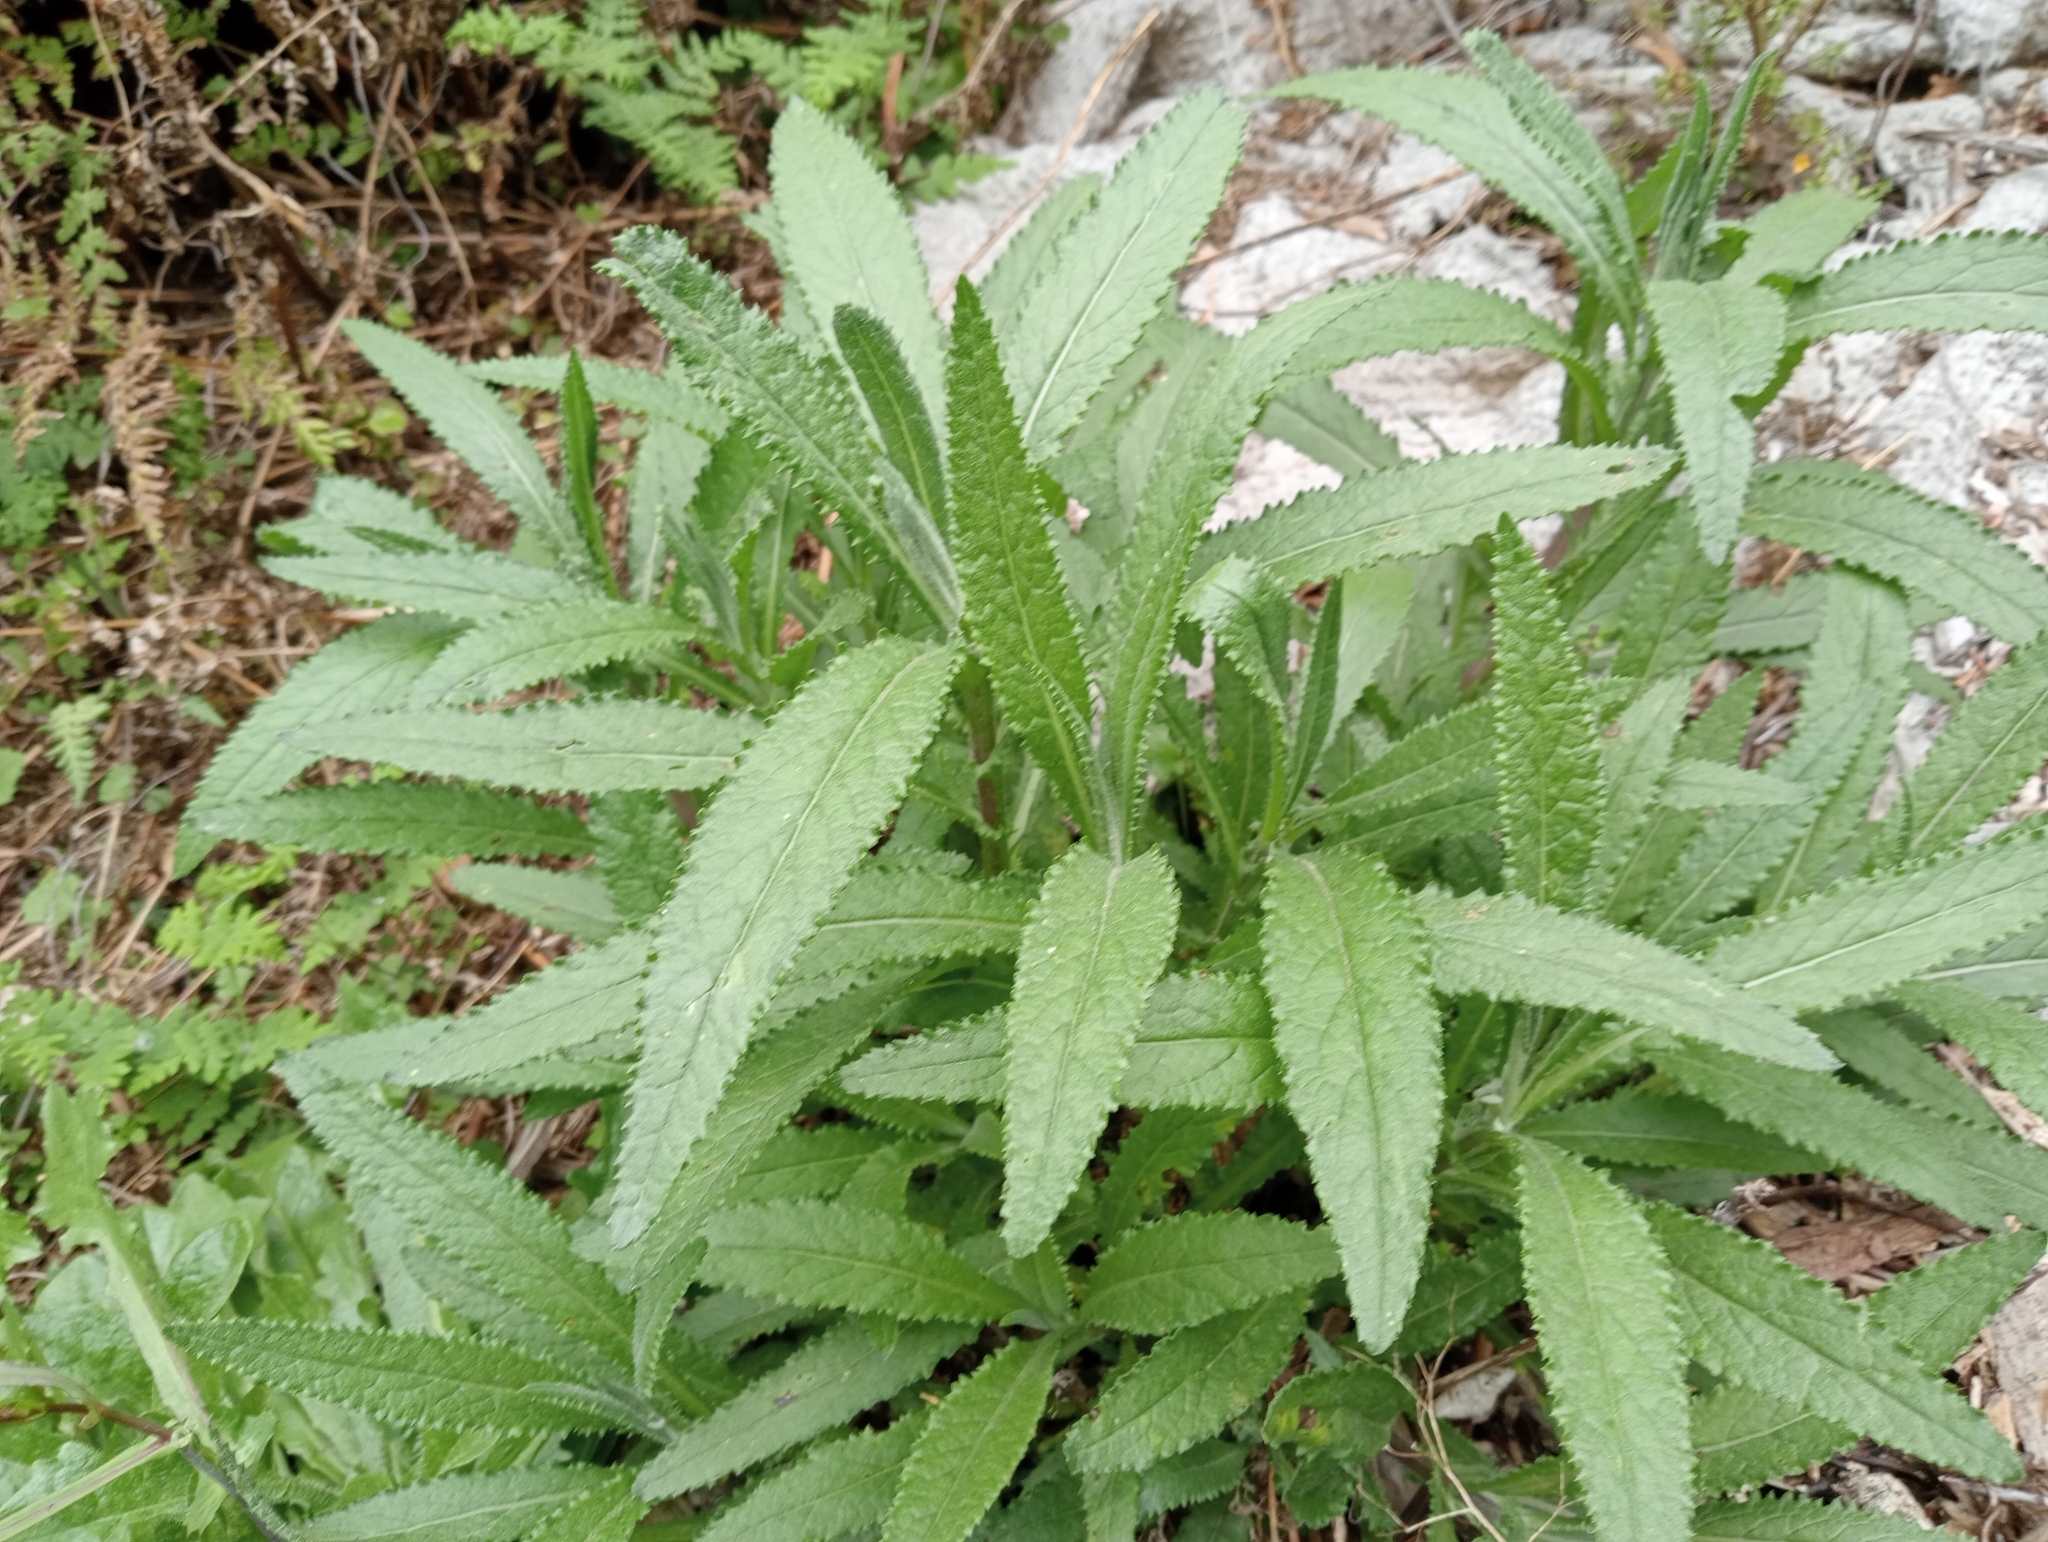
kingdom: Plantae
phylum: Tracheophyta
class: Magnoliopsida
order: Asterales
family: Asteraceae
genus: Senecio
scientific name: Senecio minimus
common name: Toothed fireweed
